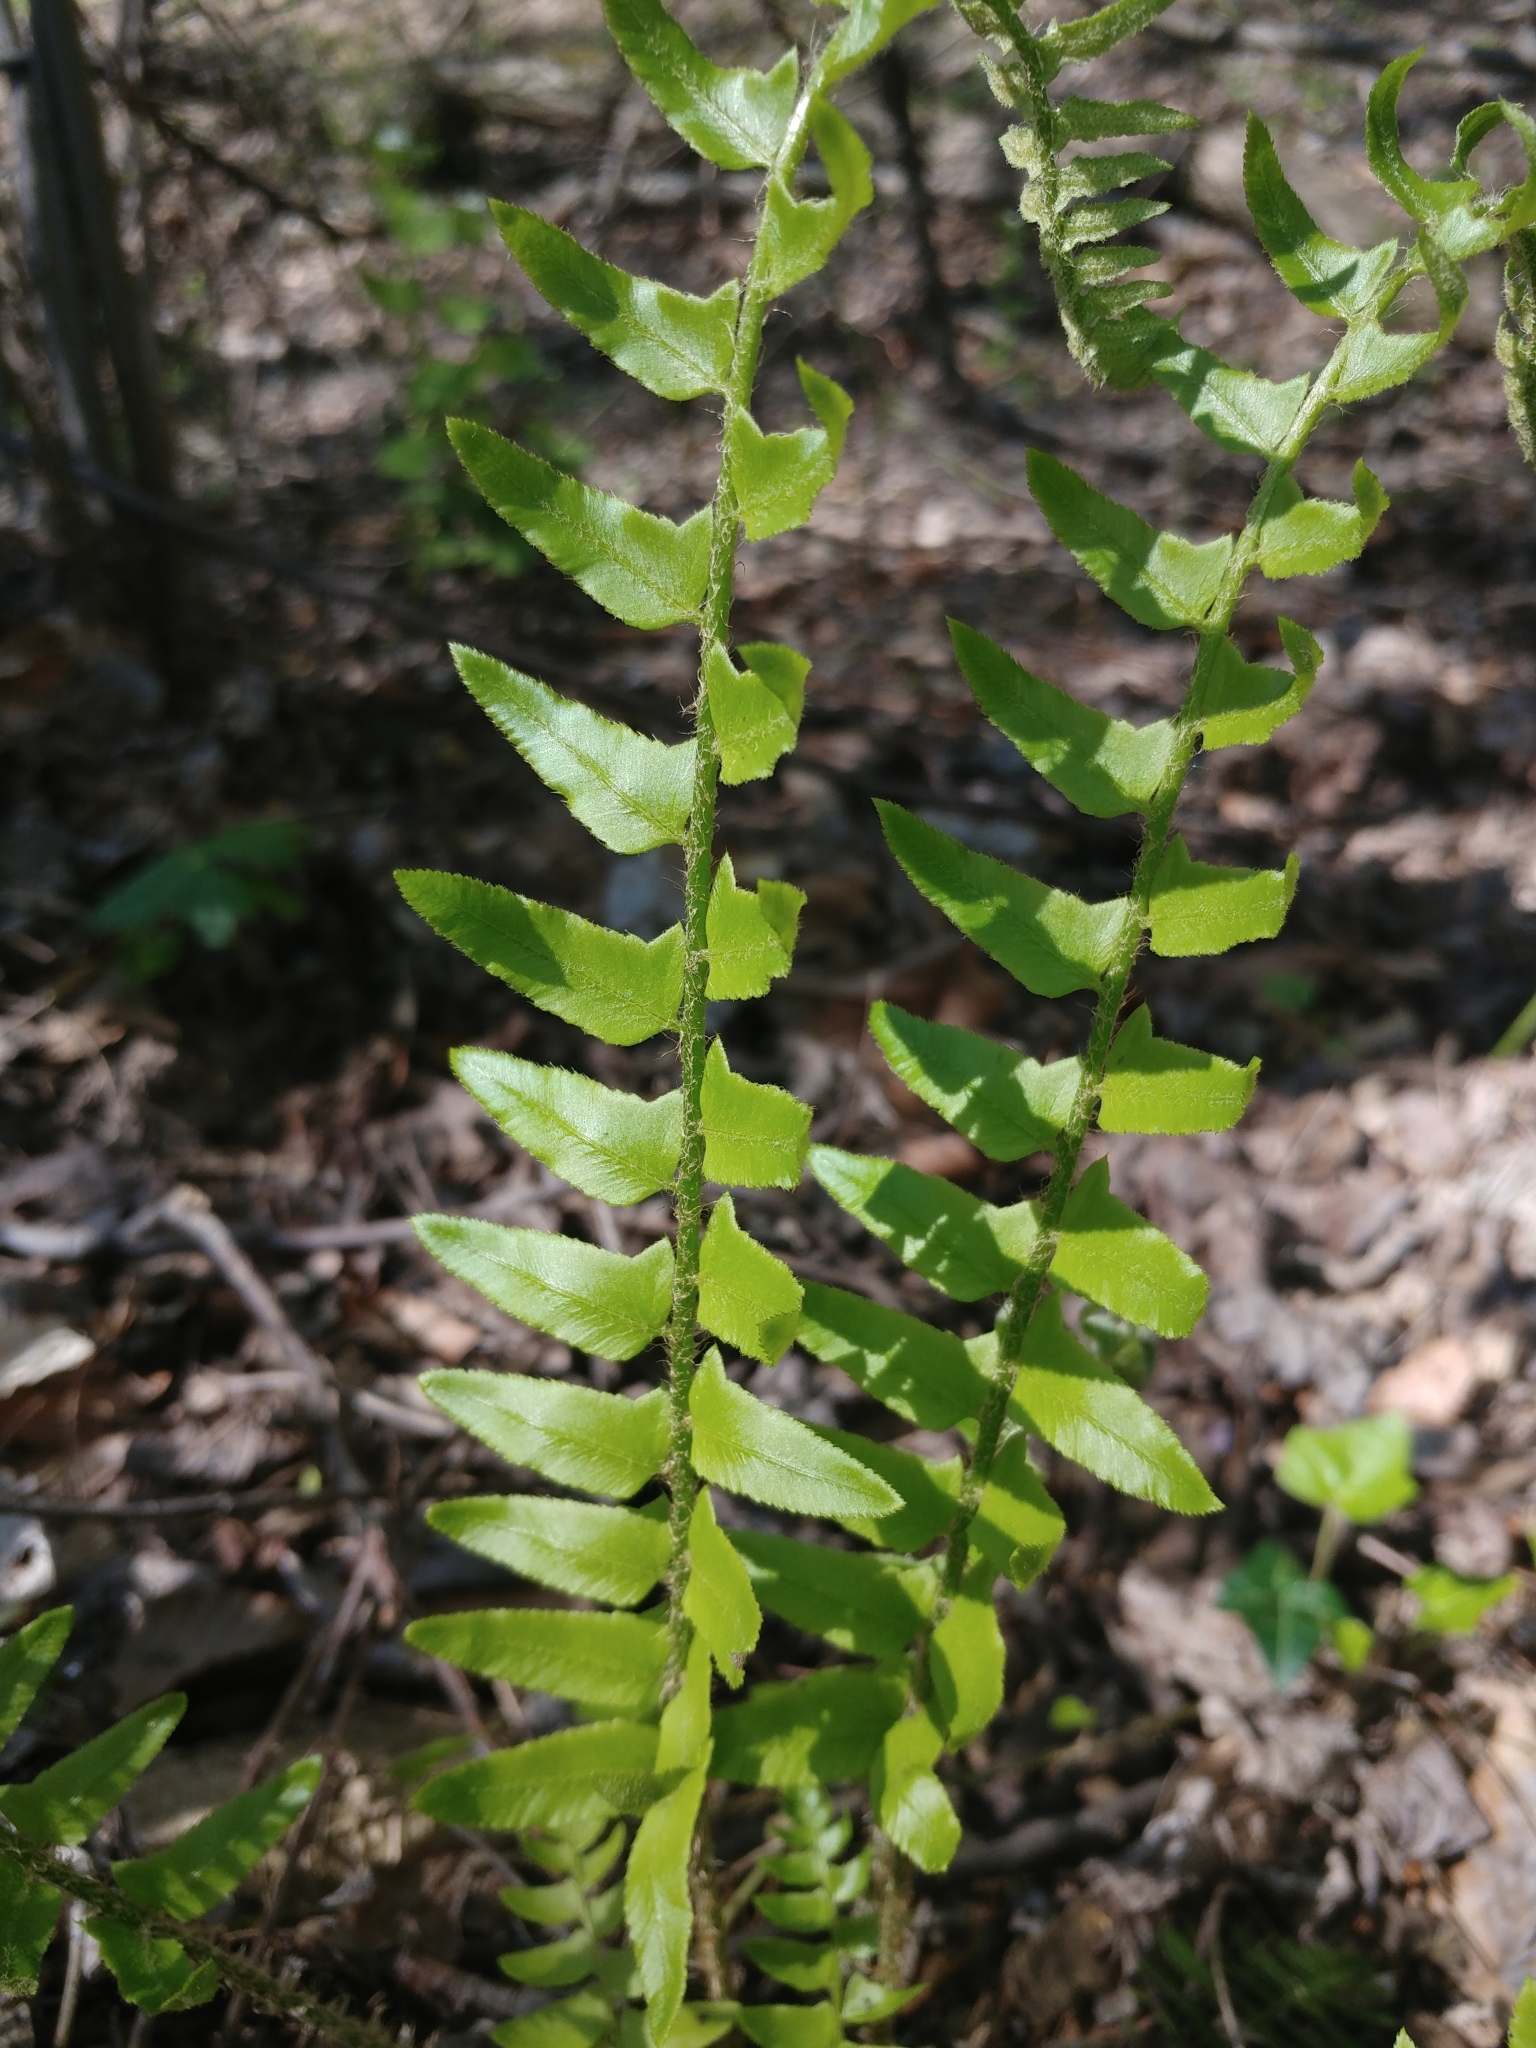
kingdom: Plantae
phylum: Tracheophyta
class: Polypodiopsida
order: Polypodiales
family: Dryopteridaceae
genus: Polystichum
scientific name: Polystichum acrostichoides
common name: Christmas fern
